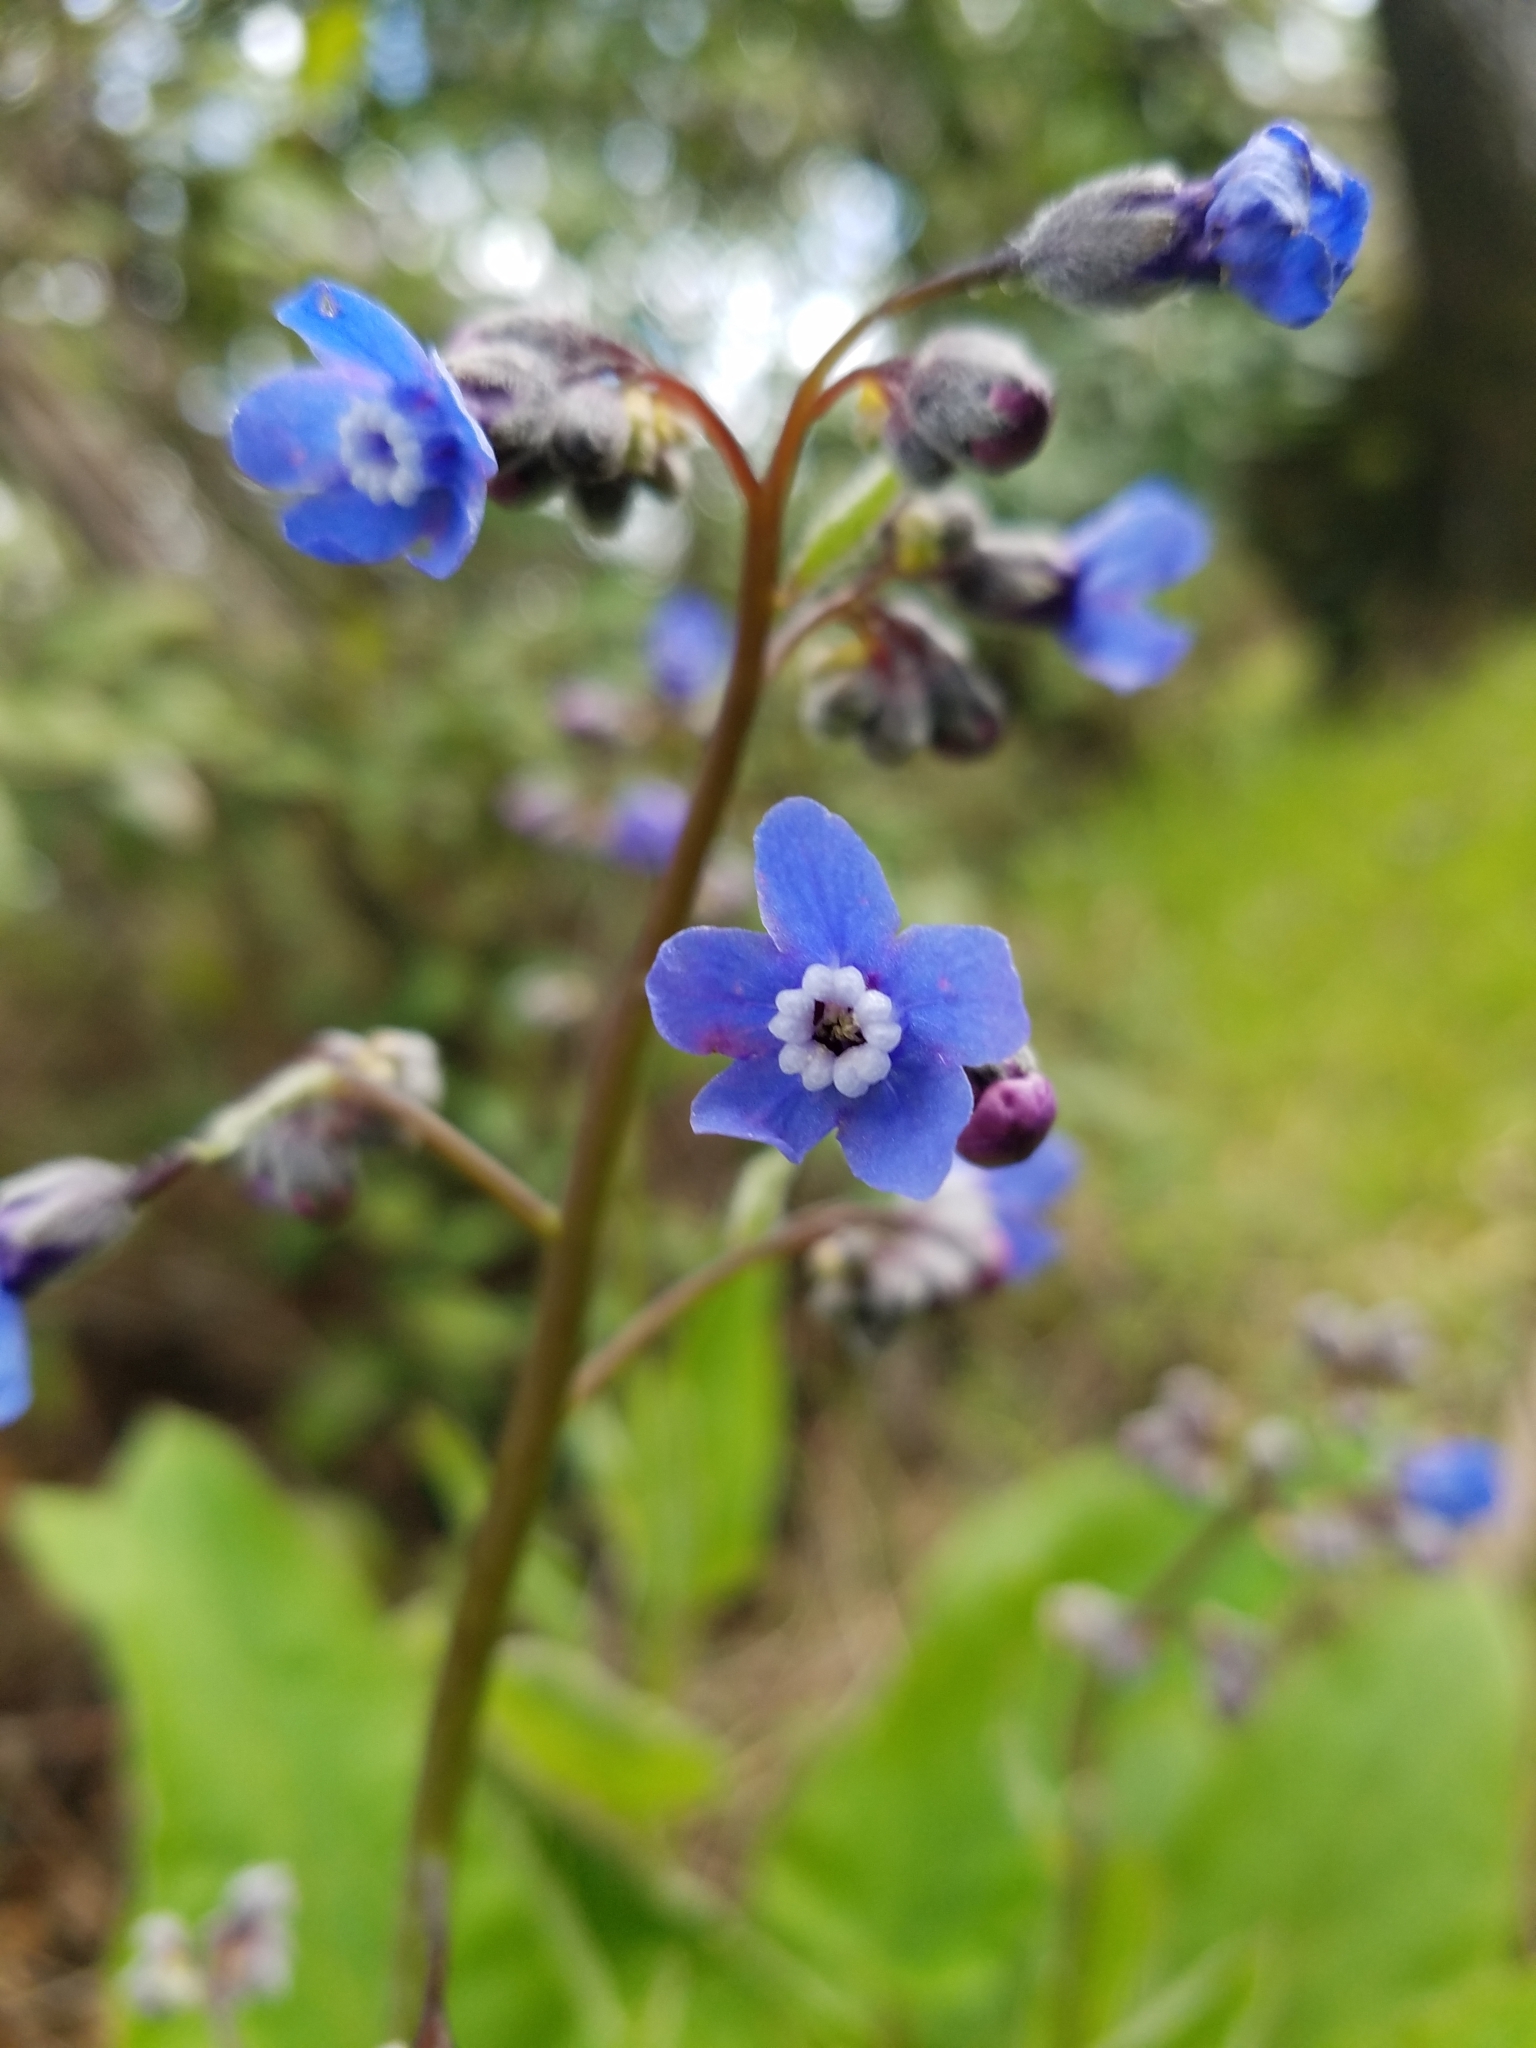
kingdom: Plantae
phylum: Tracheophyta
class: Magnoliopsida
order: Boraginales
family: Boraginaceae
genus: Adelinia
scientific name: Adelinia grande
